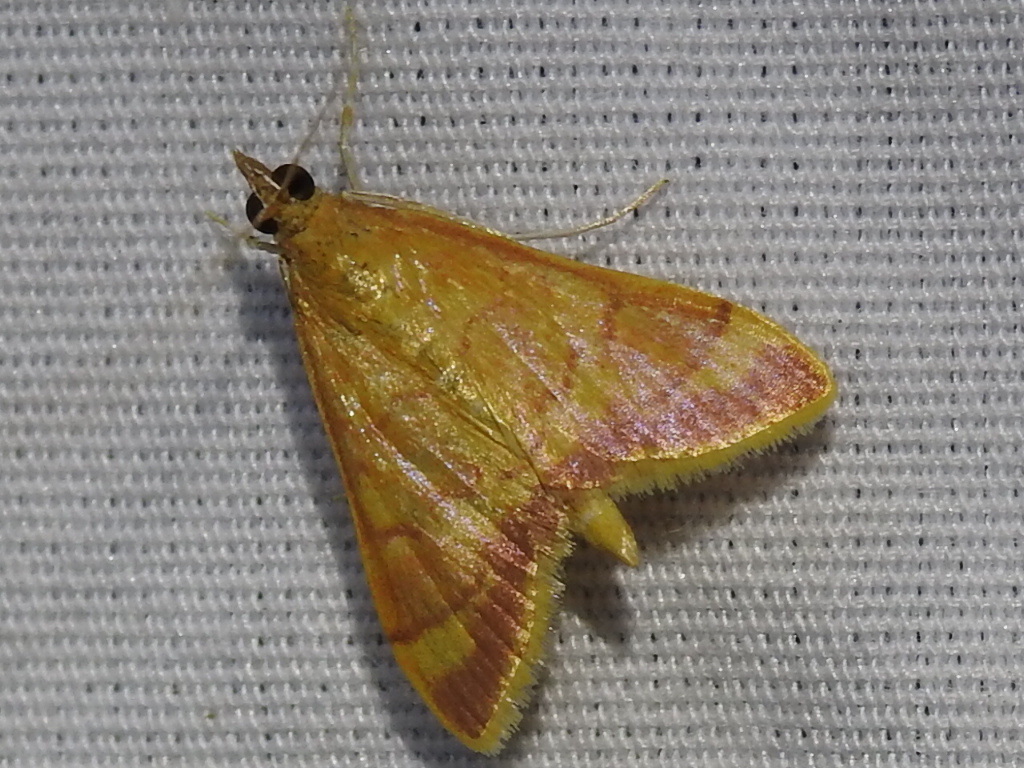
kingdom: Animalia
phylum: Arthropoda
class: Insecta
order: Lepidoptera
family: Crambidae
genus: Pyrausta
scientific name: Pyrausta pseudonythesalis
